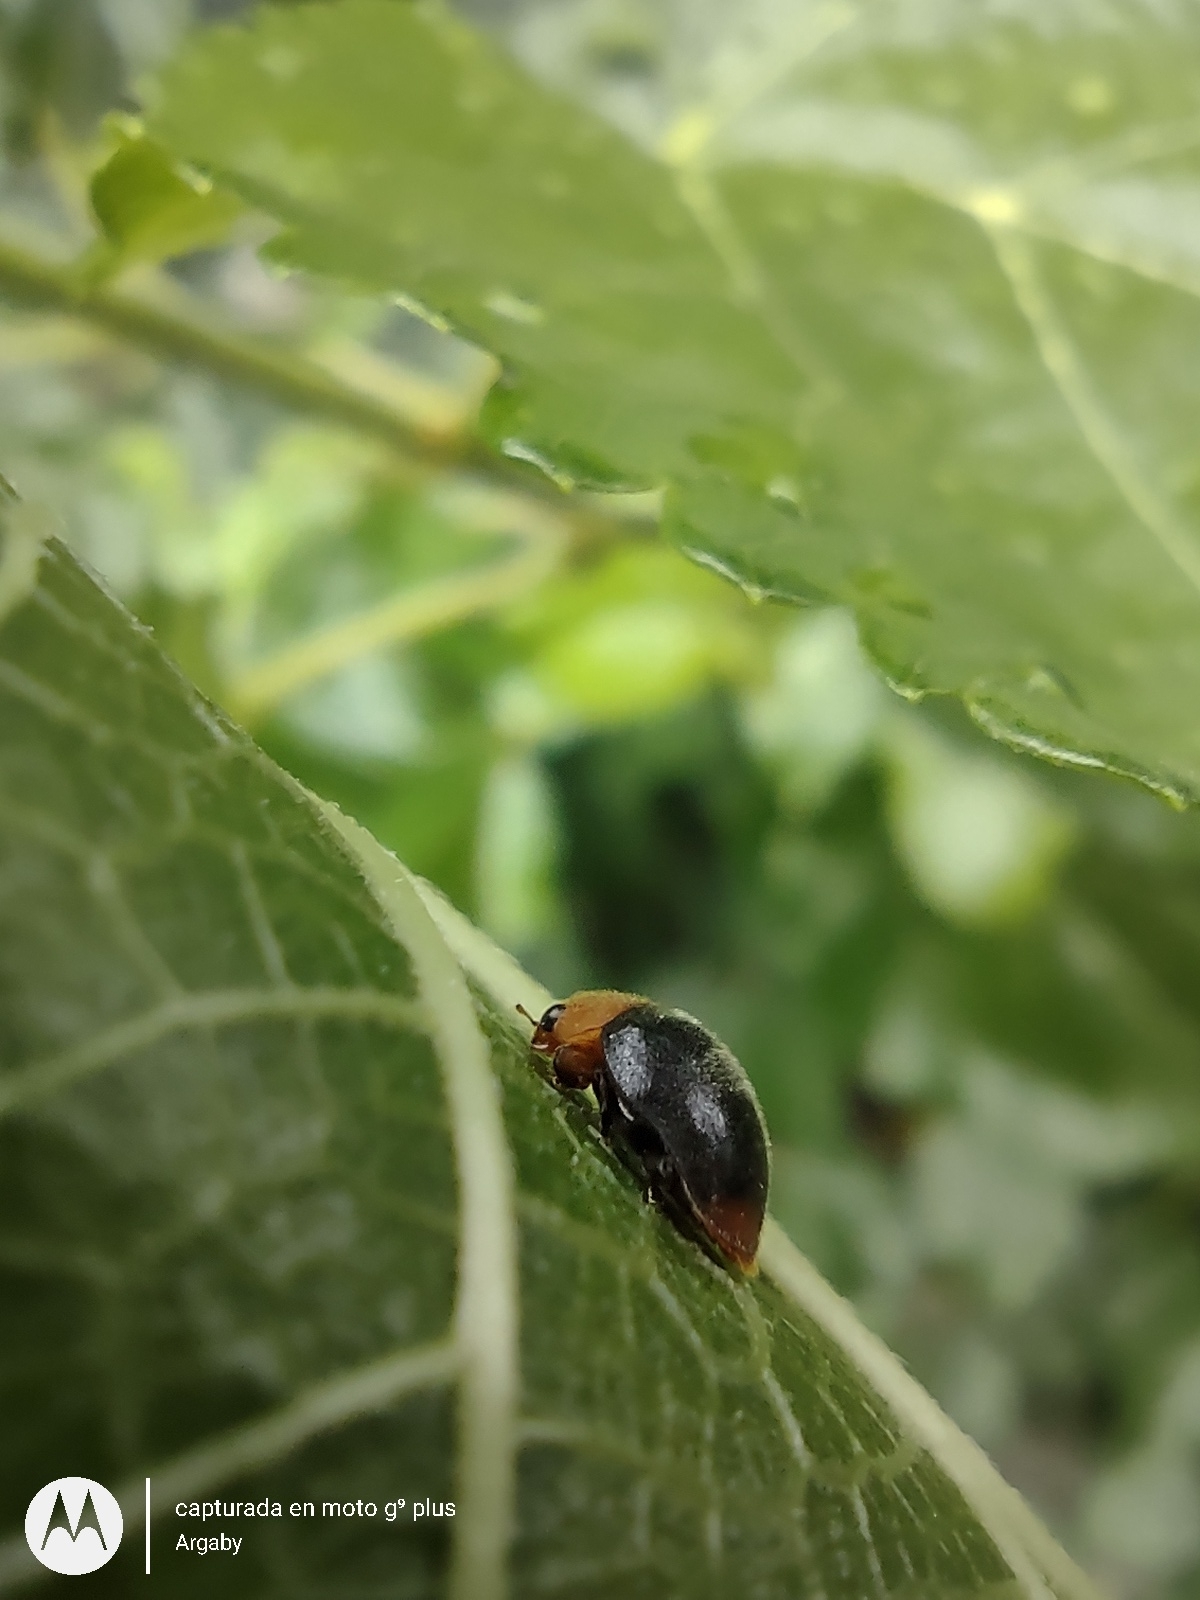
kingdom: Animalia
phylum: Arthropoda
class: Insecta
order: Coleoptera
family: Coccinellidae
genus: Cryptolaemus
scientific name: Cryptolaemus montrouzieri
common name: Mealybug destroyer
